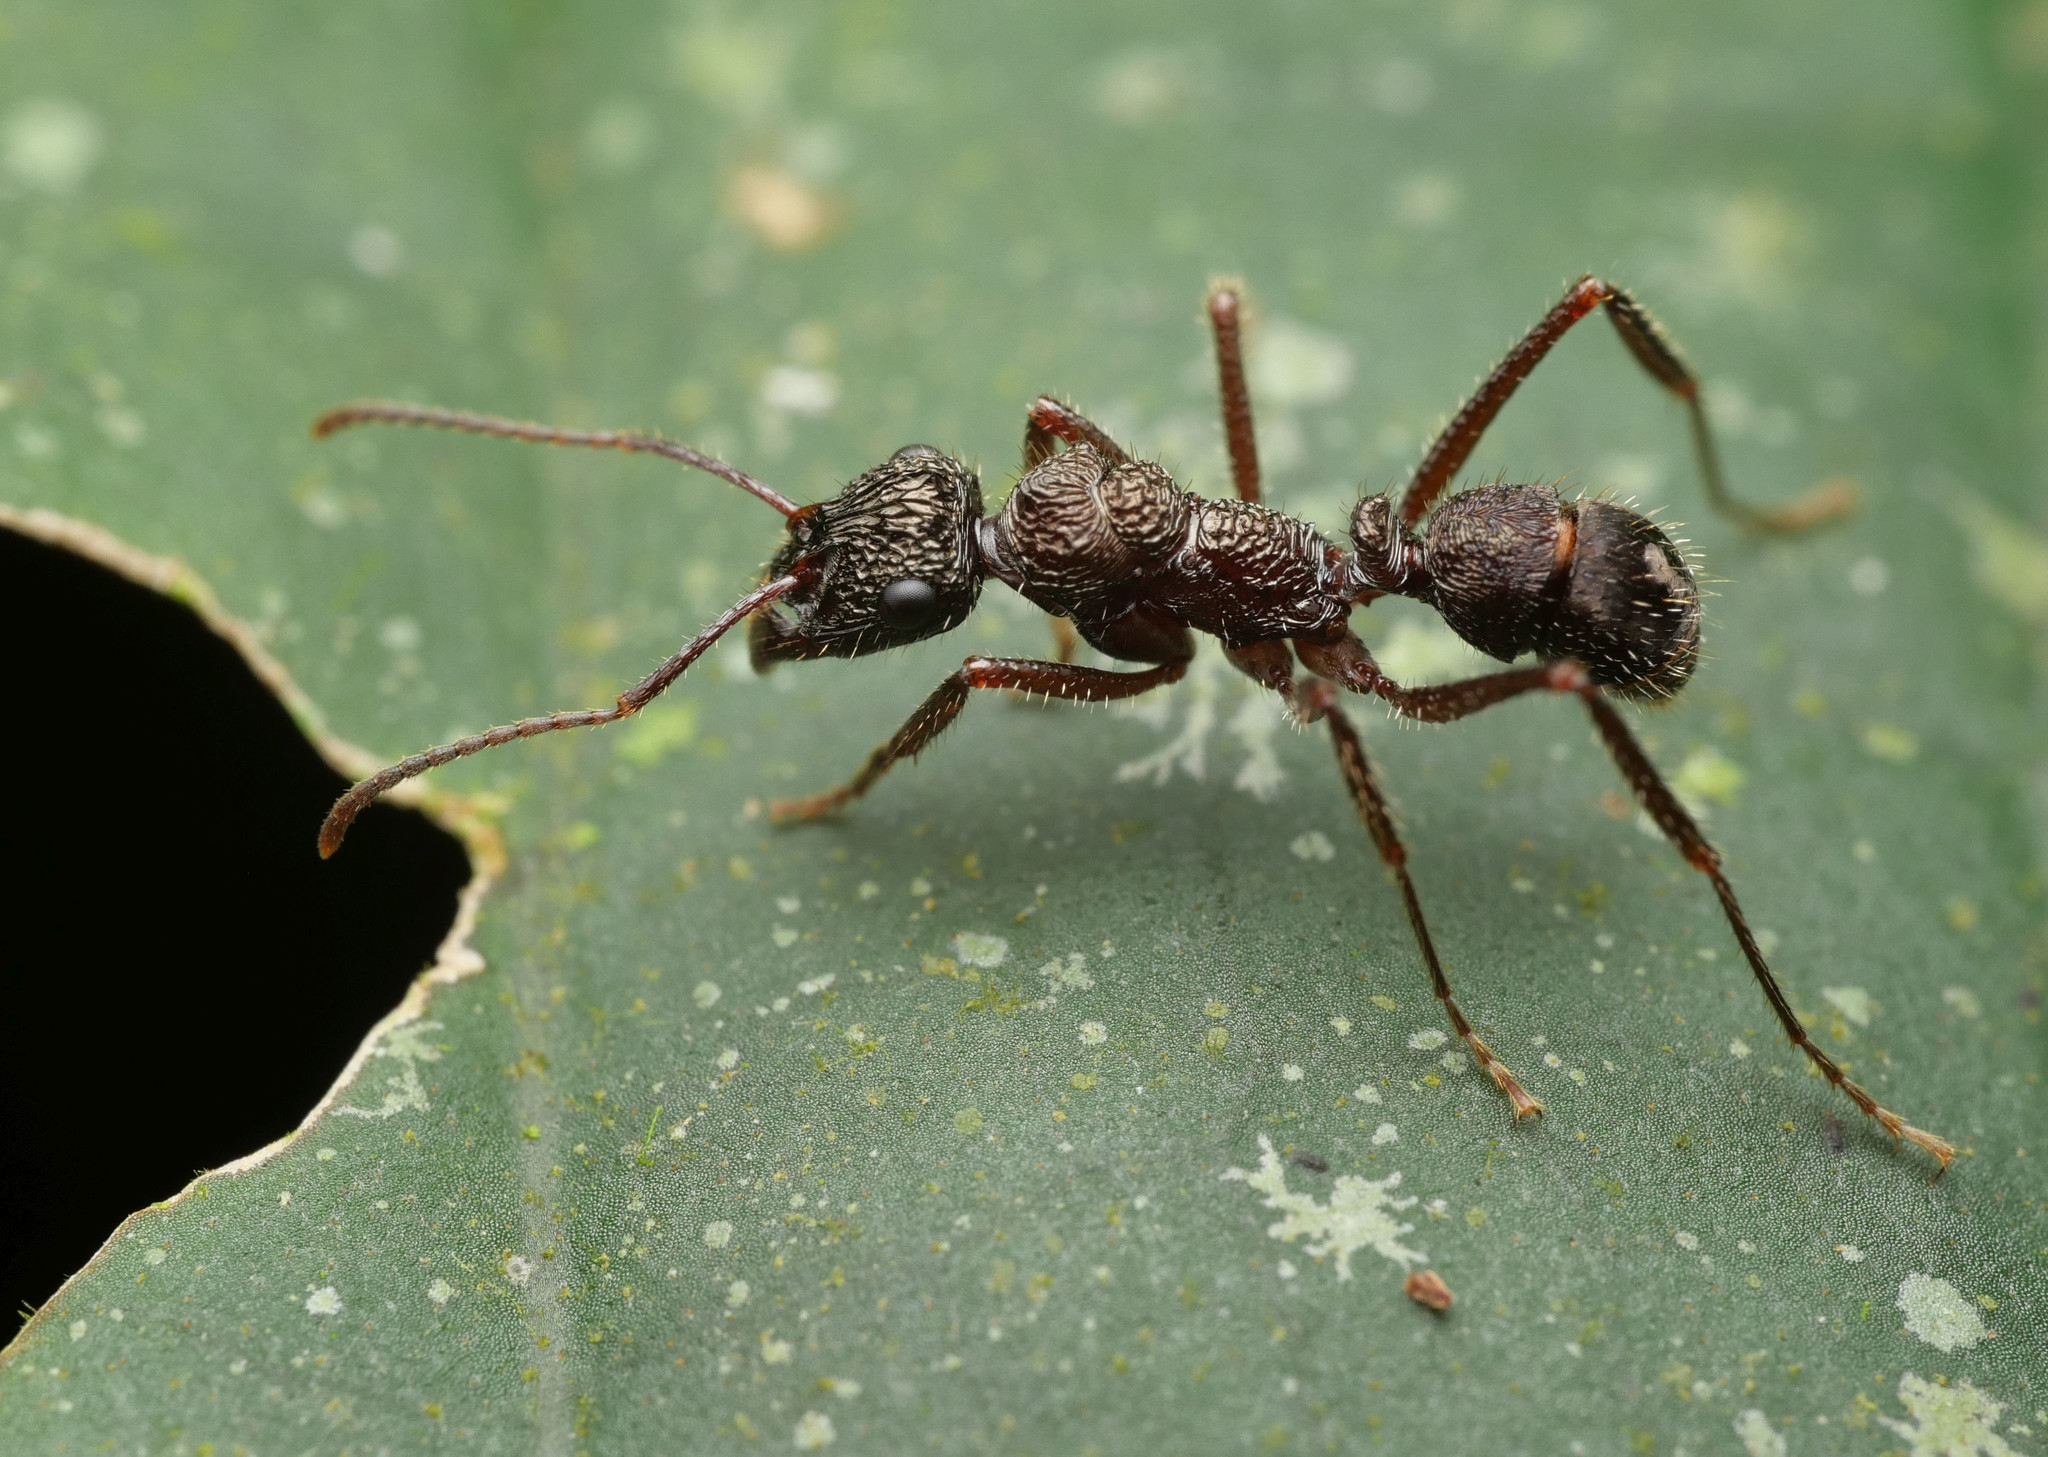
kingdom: Animalia
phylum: Arthropoda
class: Insecta
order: Hymenoptera
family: Formicidae
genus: Ectatomma
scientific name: Ectatomma ruidum
